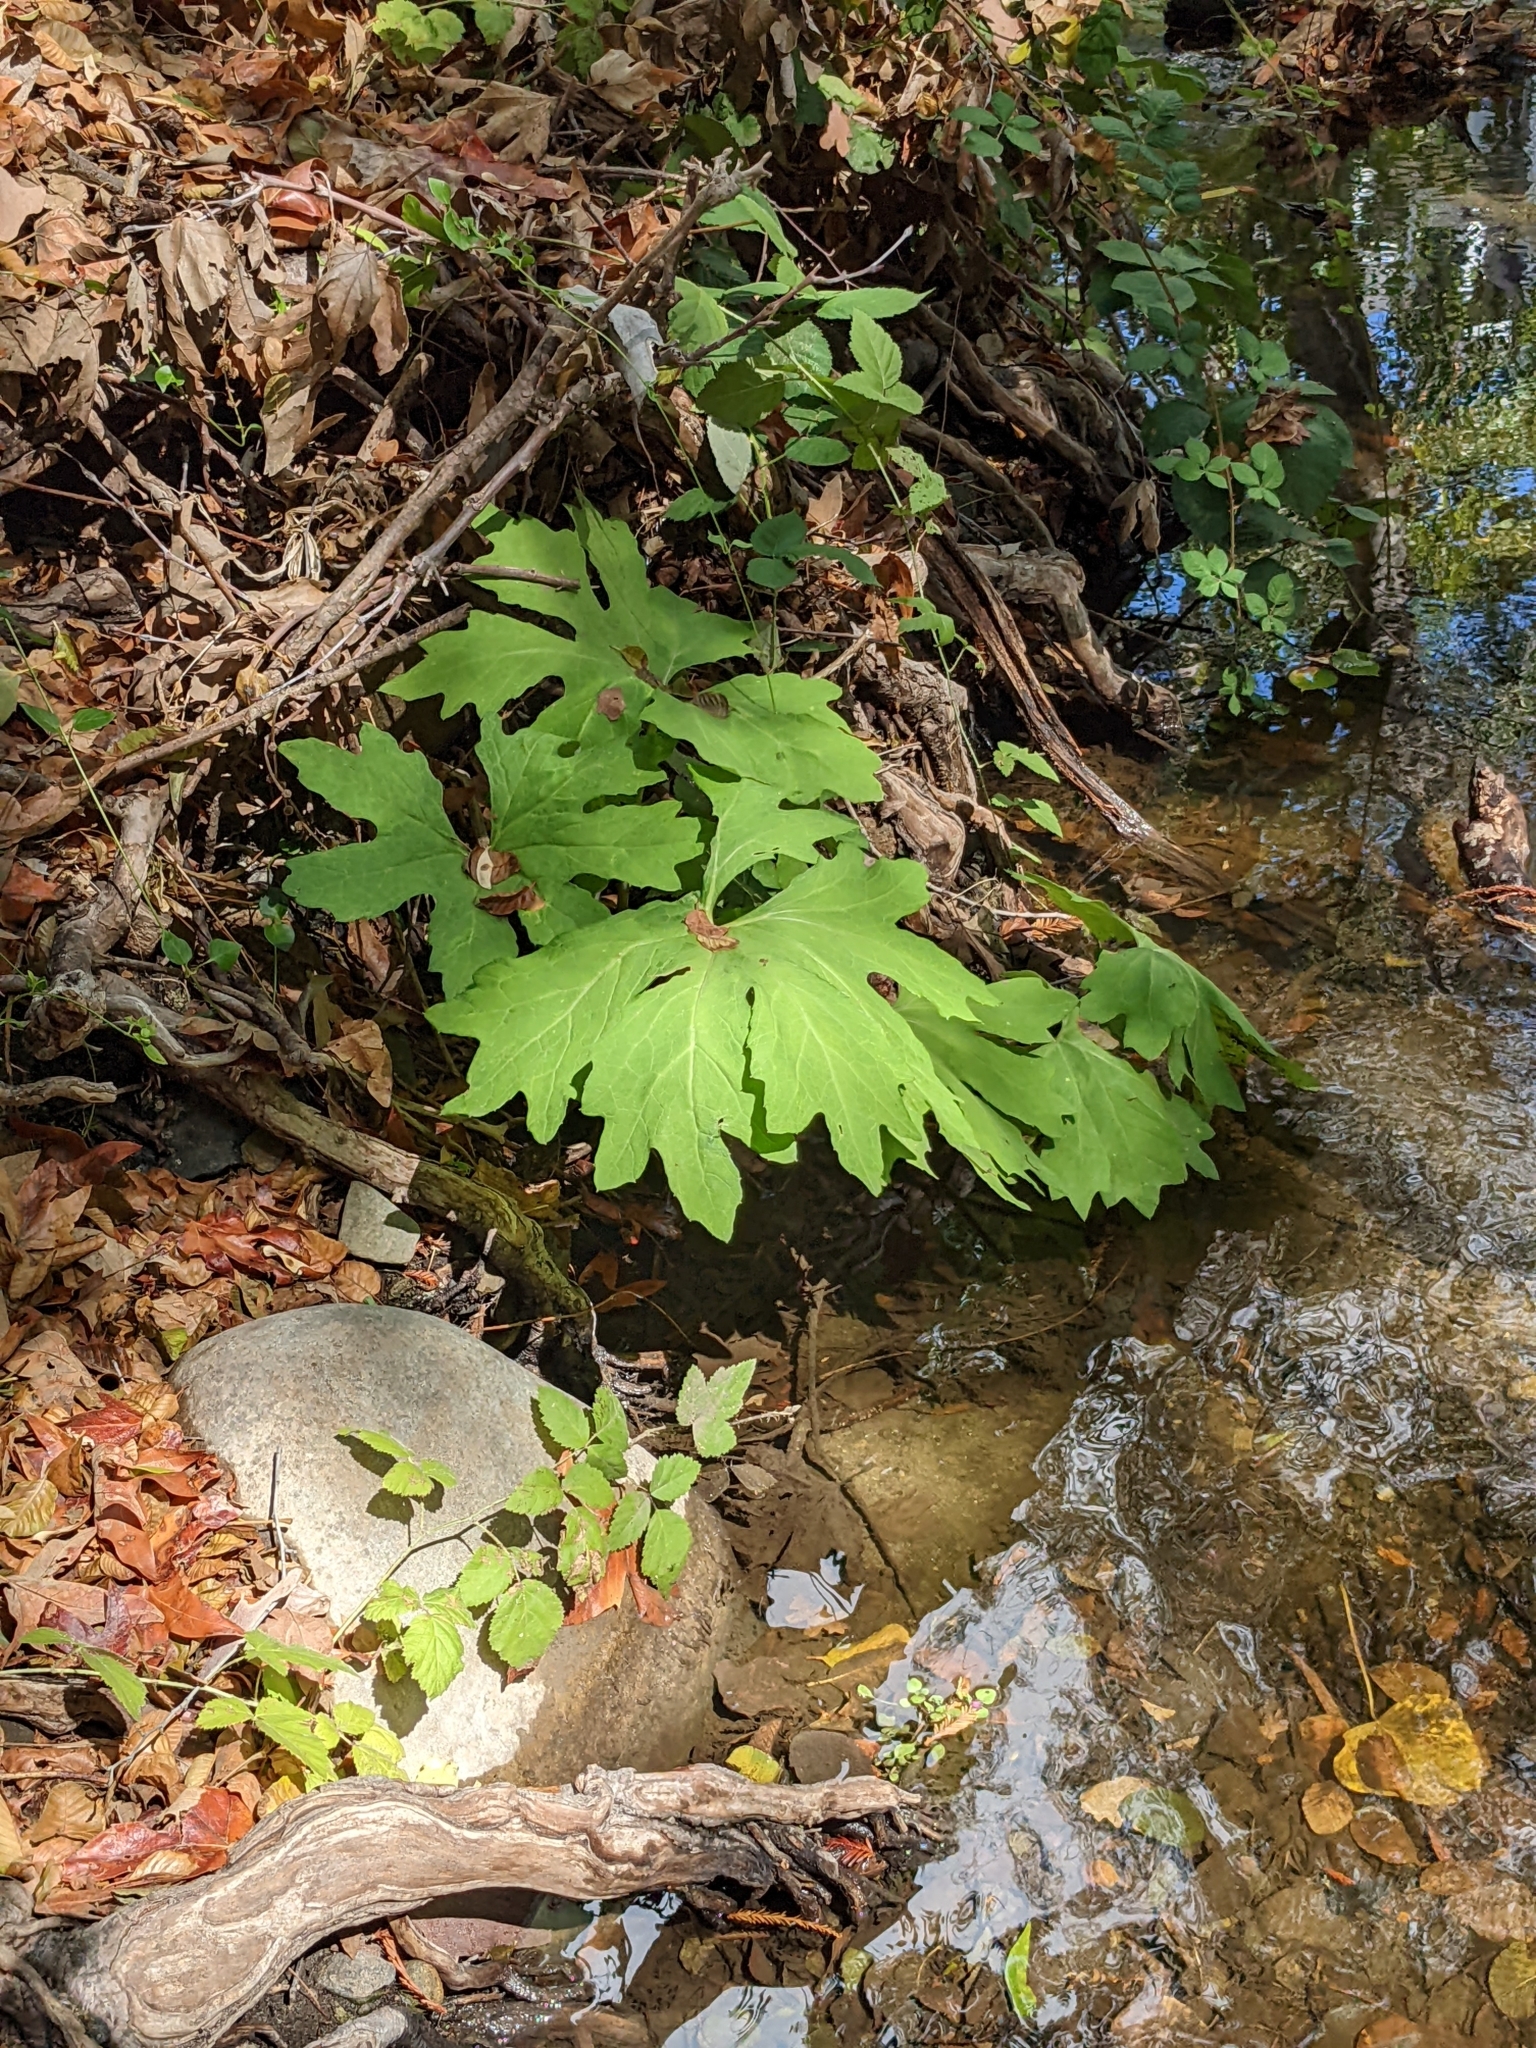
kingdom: Plantae
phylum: Tracheophyta
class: Magnoliopsida
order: Asterales
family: Asteraceae
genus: Petasites
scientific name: Petasites frigidus
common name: Arctic butterbur
